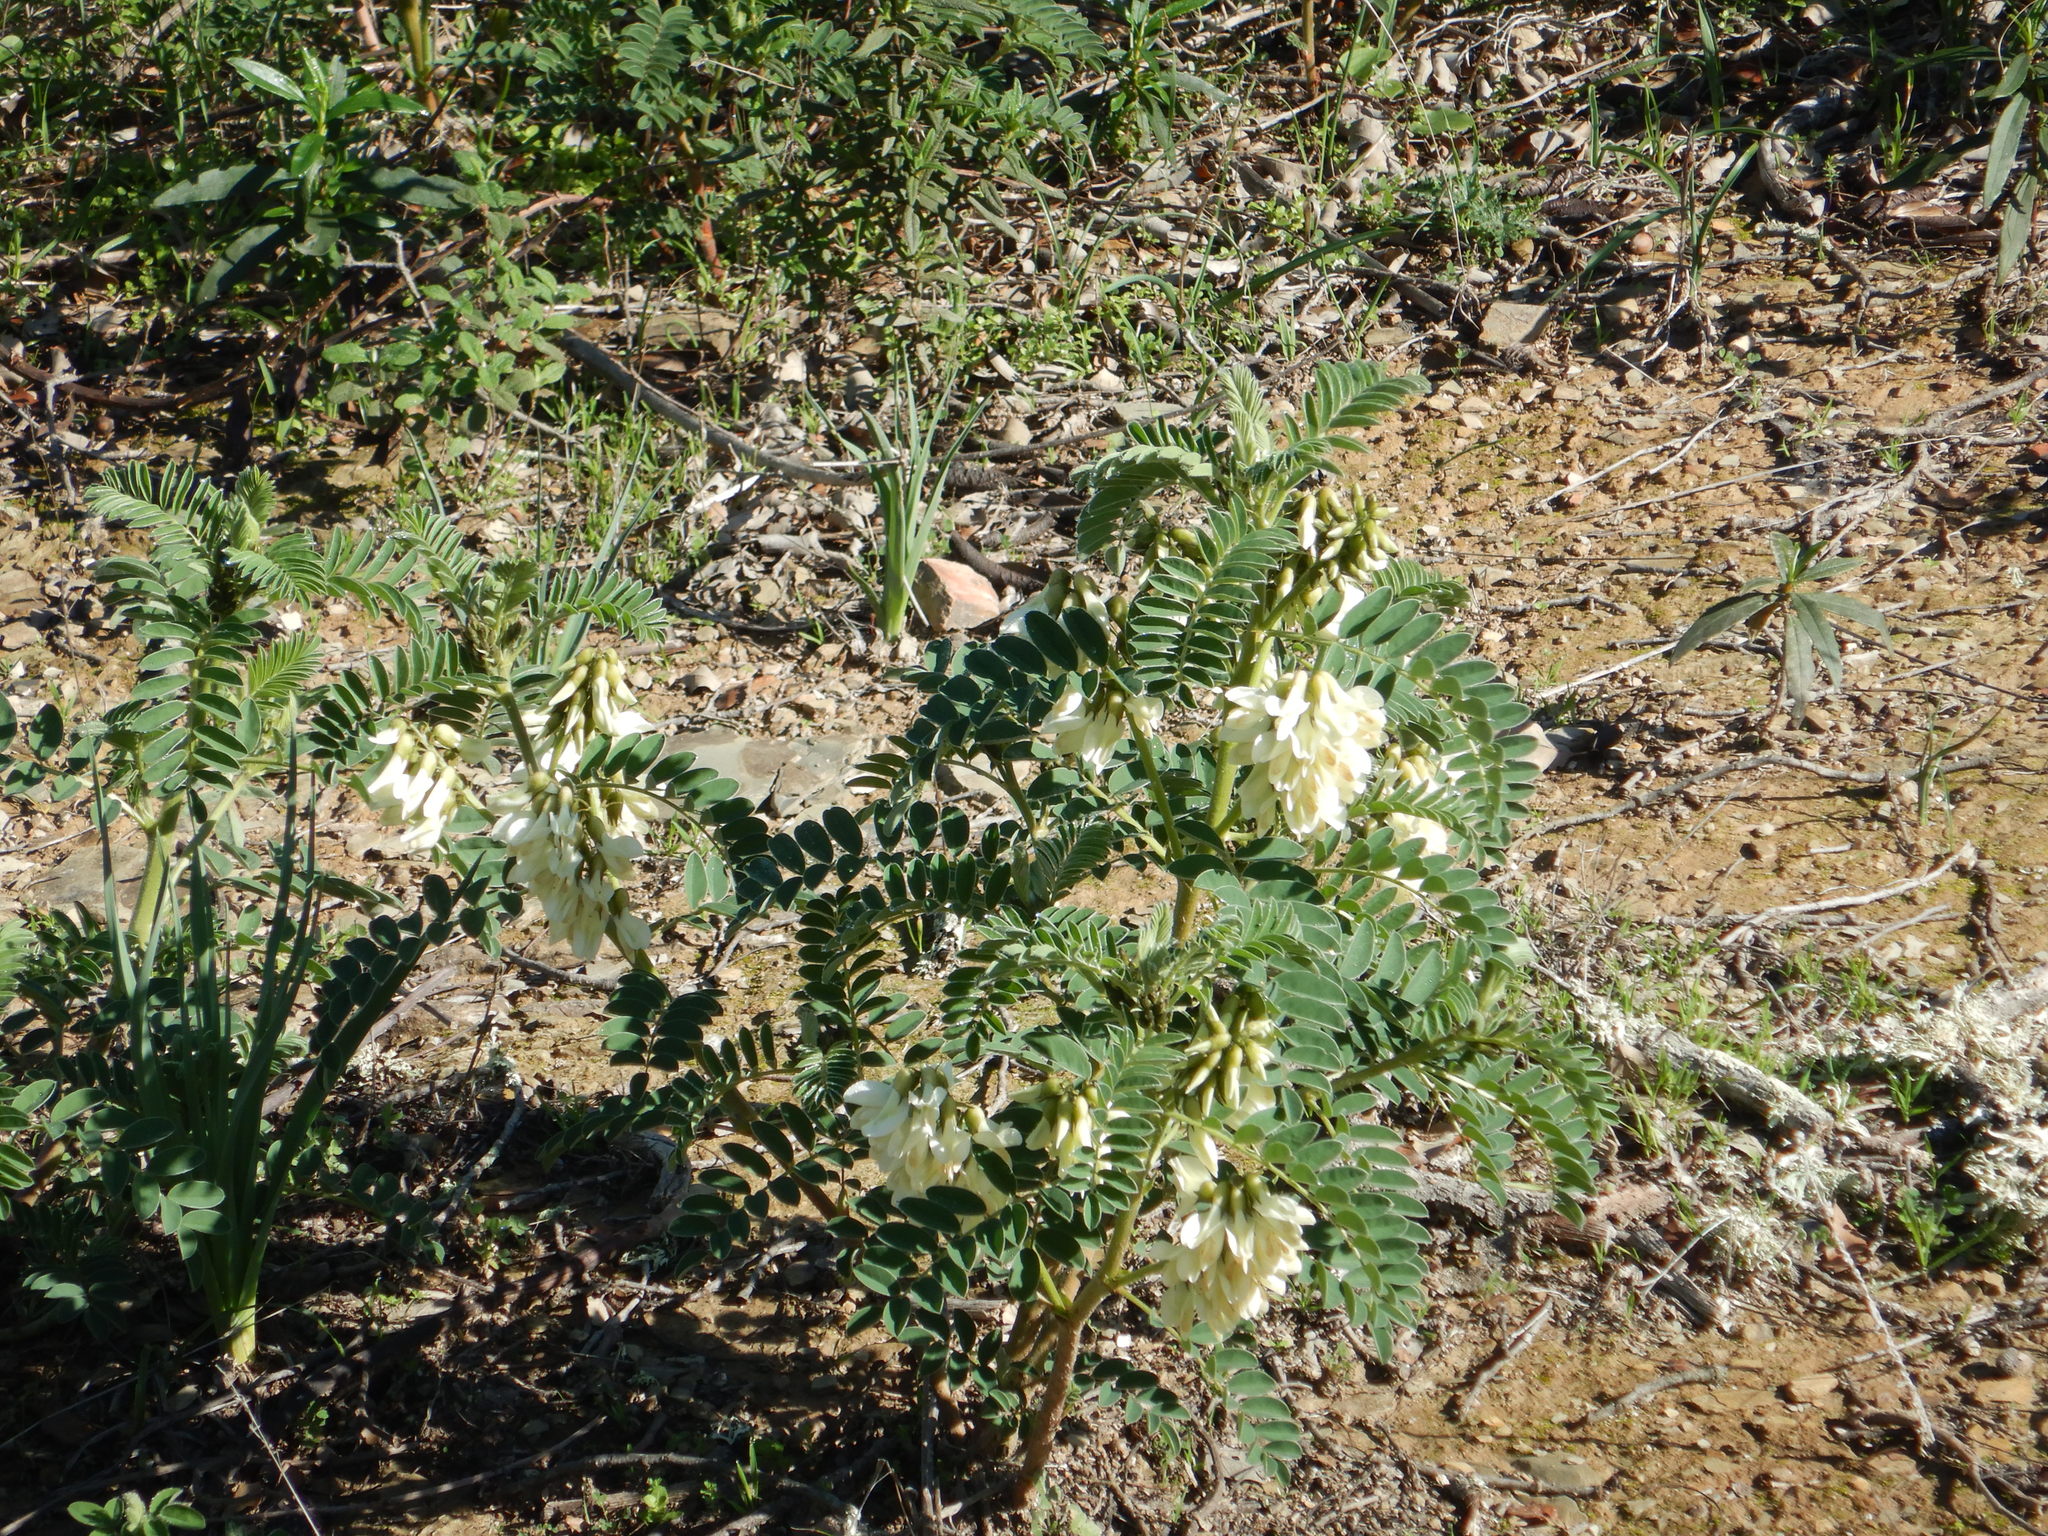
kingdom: Plantae
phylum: Tracheophyta
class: Magnoliopsida
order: Fabales
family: Fabaceae
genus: Erophaca
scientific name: Erophaca baetica
